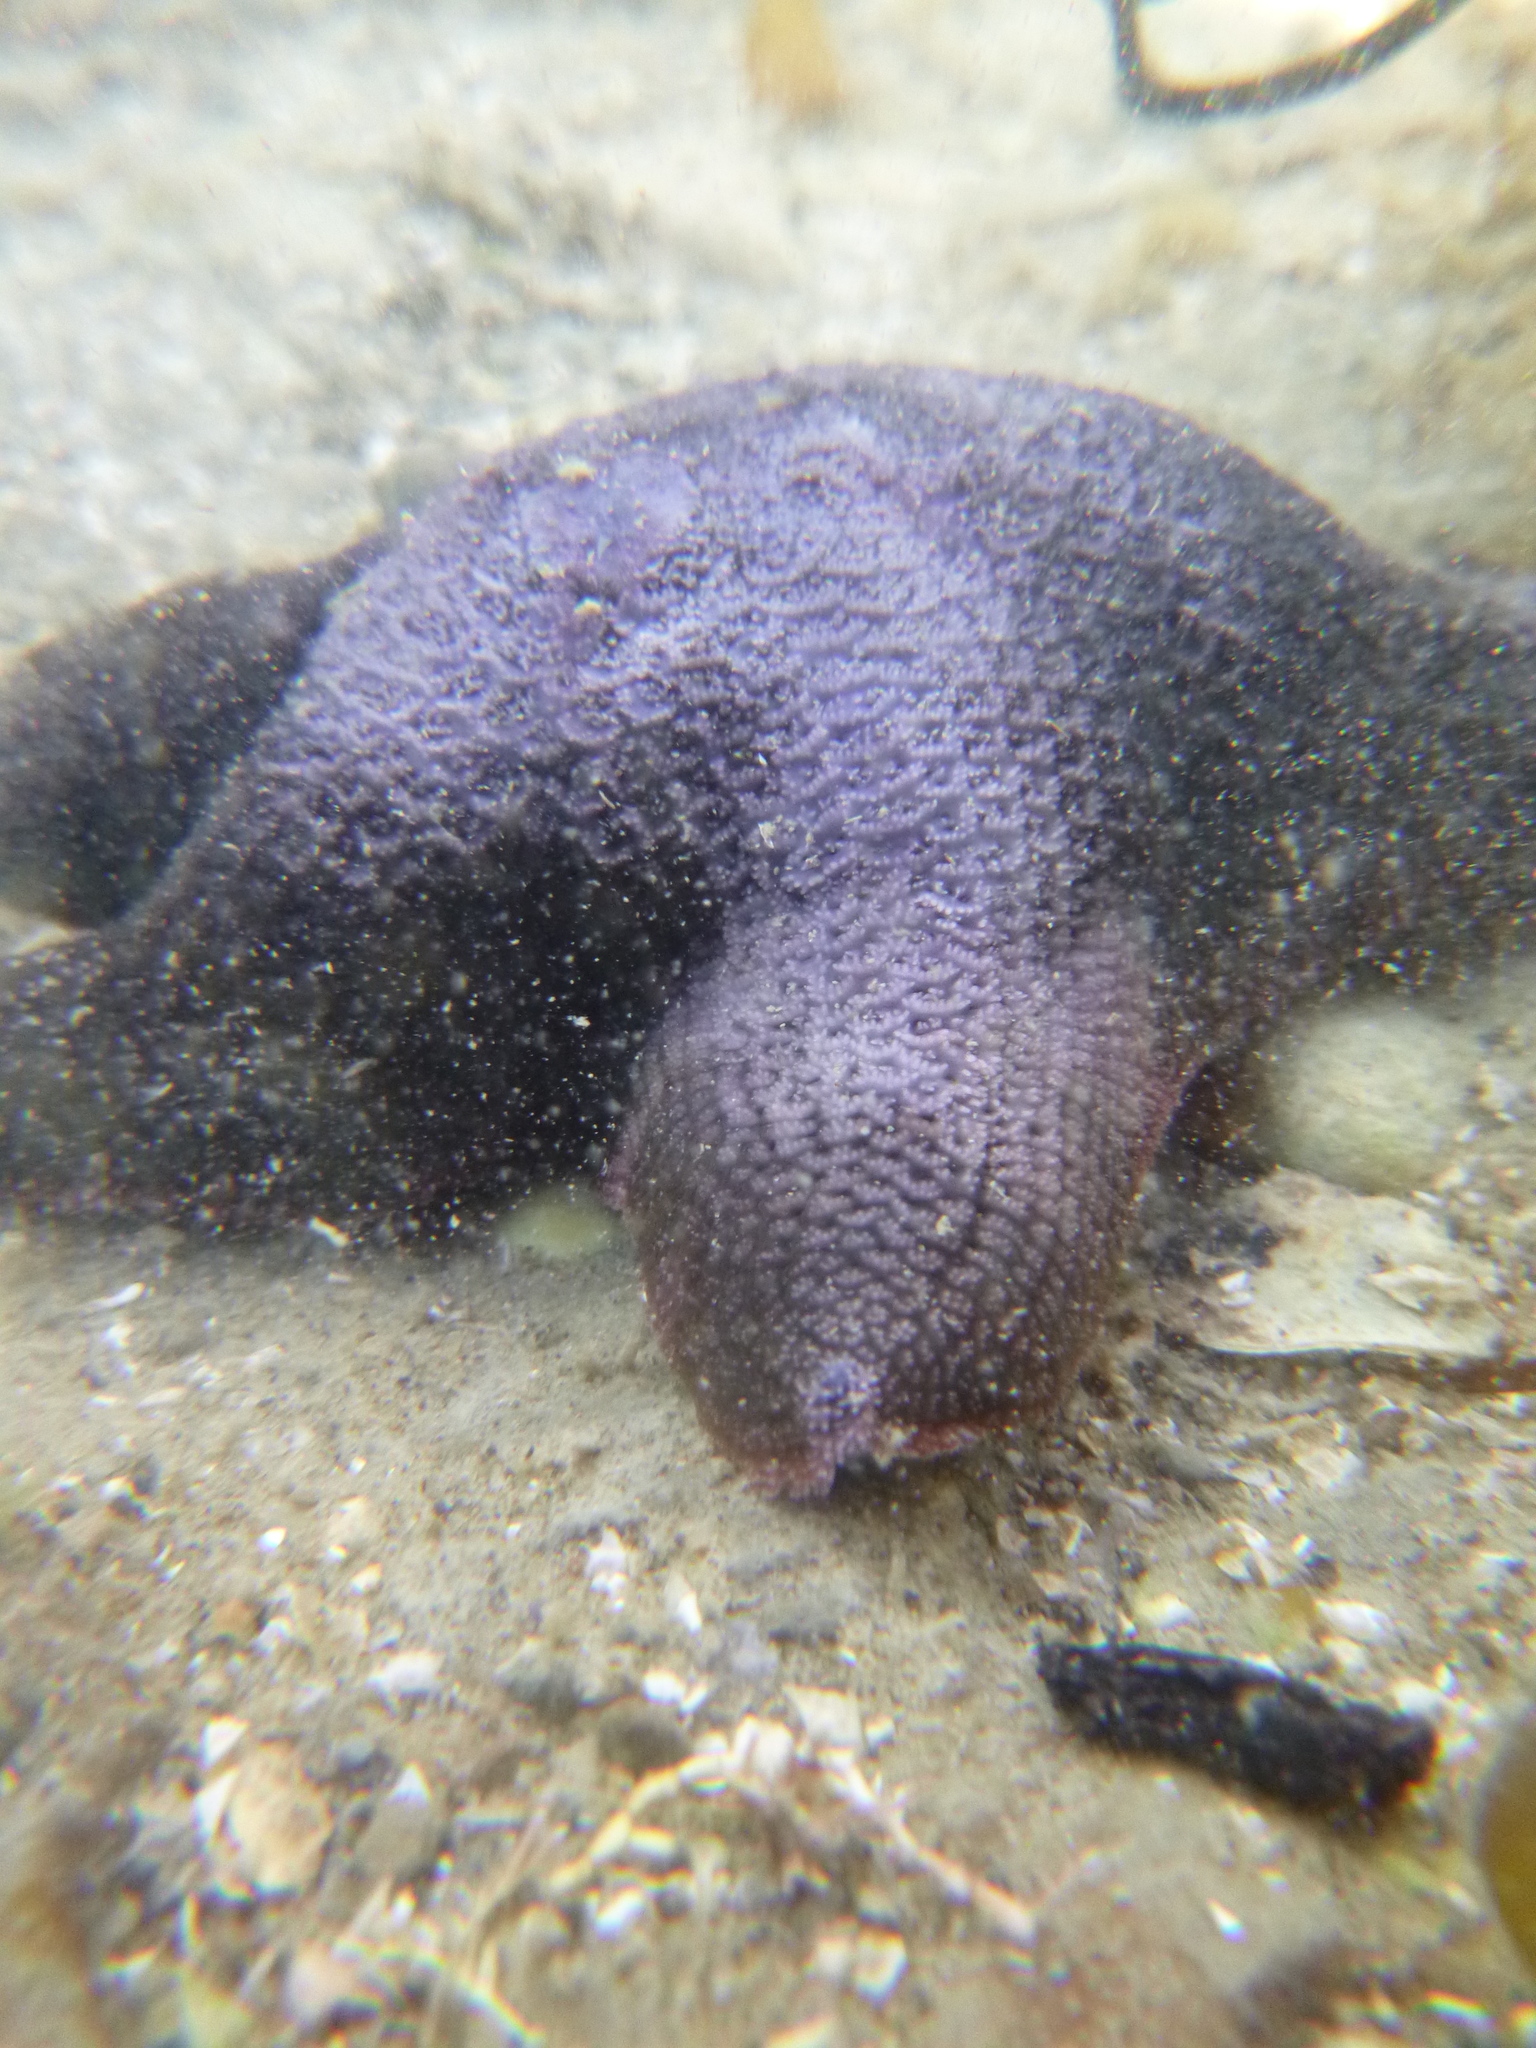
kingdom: Animalia
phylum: Echinodermata
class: Asteroidea
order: Valvatida
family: Asterinidae
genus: Patiriella
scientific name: Patiriella regularis
